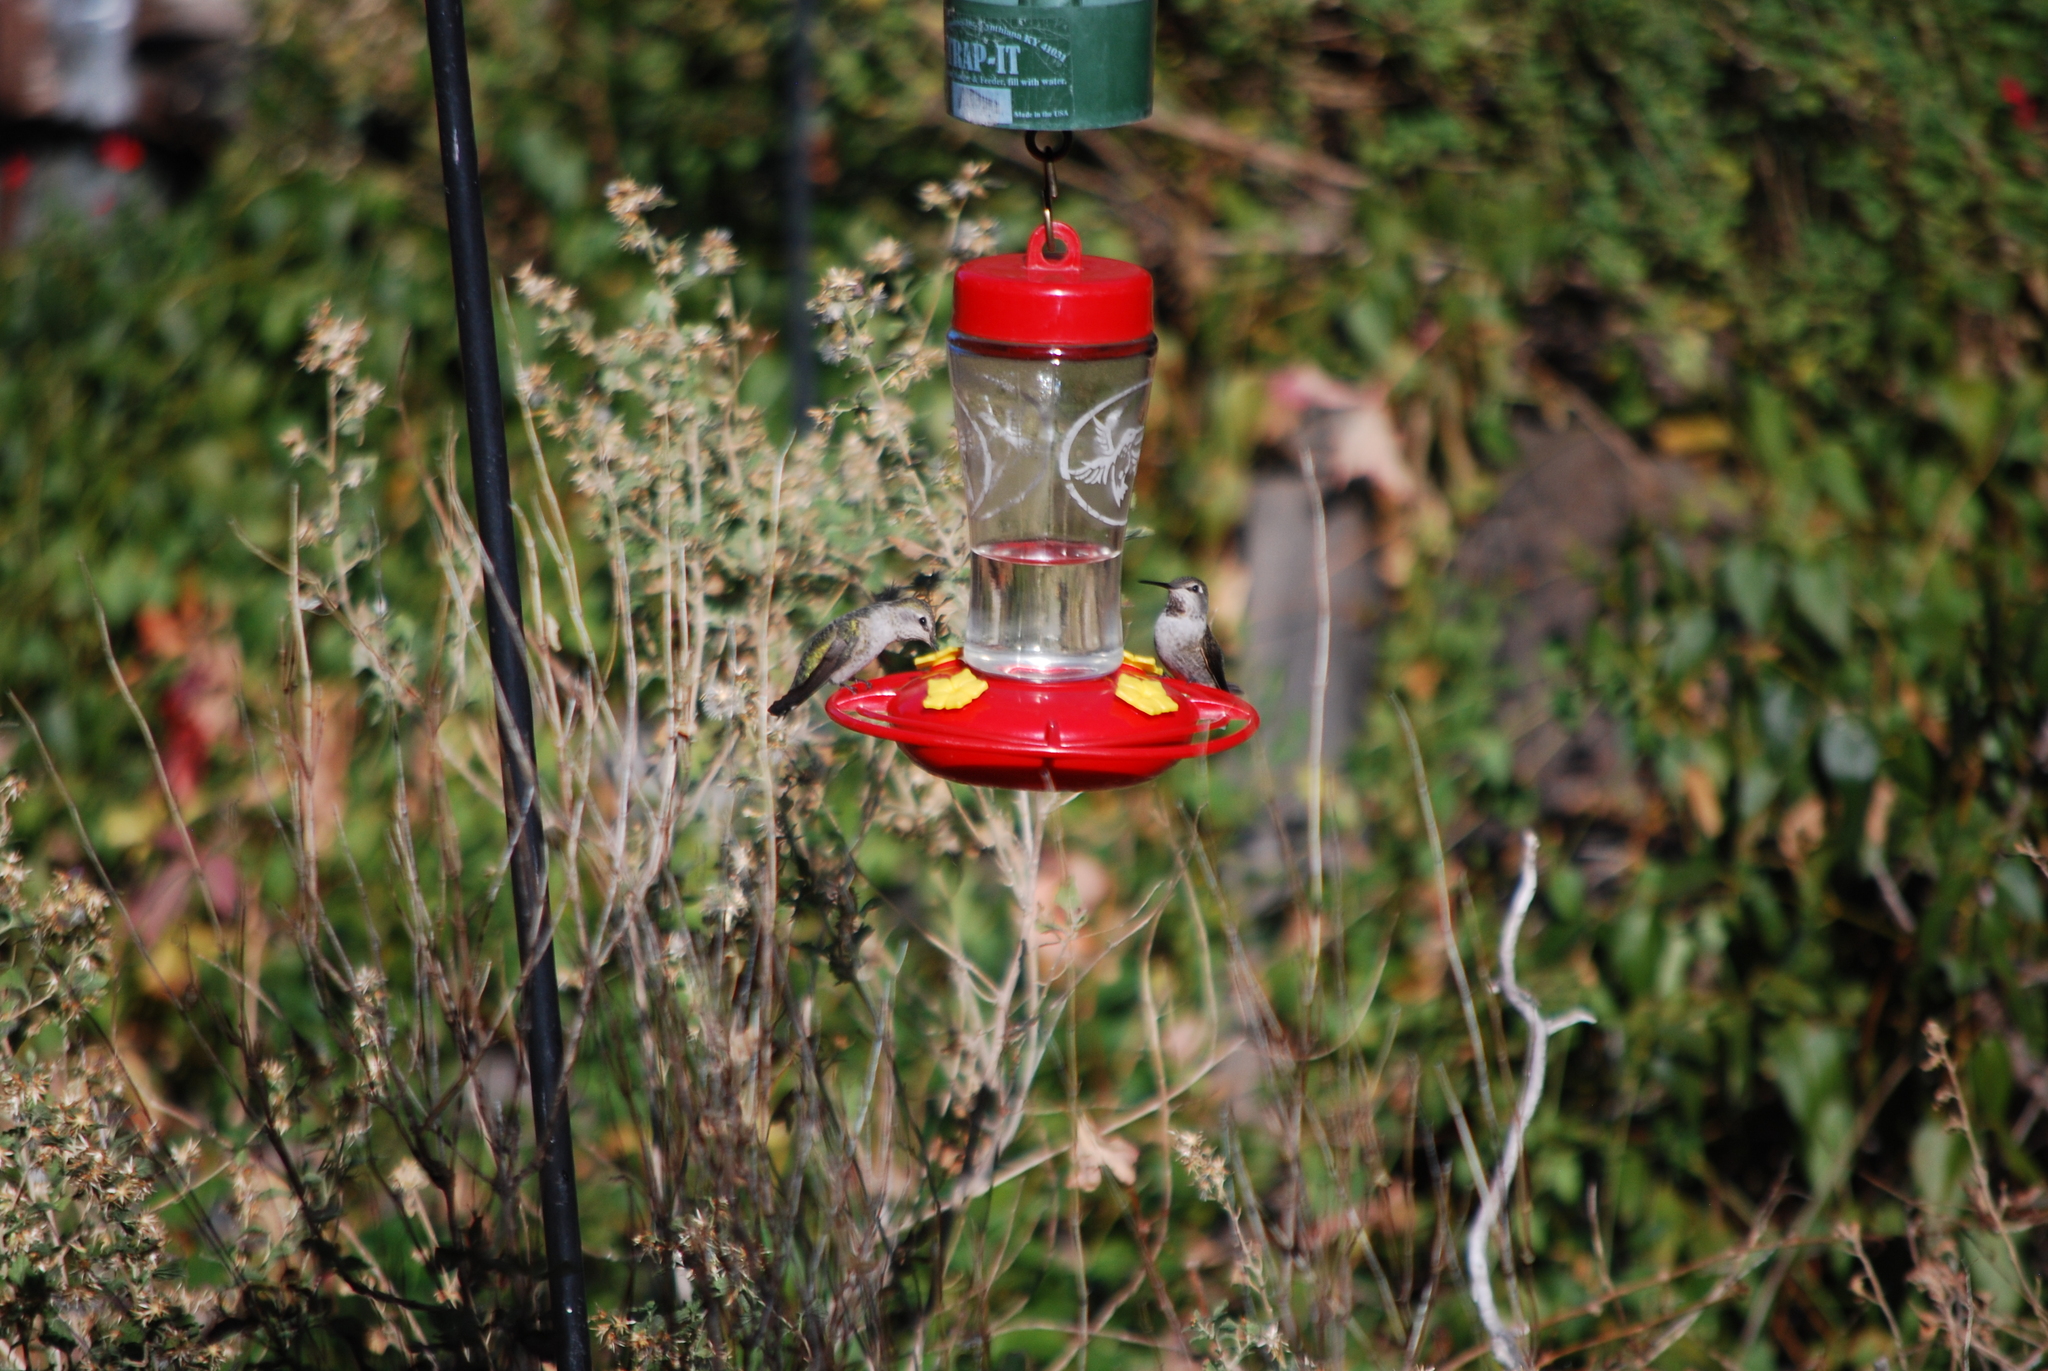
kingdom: Animalia
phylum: Chordata
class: Aves
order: Apodiformes
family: Trochilidae
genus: Calypte
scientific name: Calypte anna
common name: Anna's hummingbird
